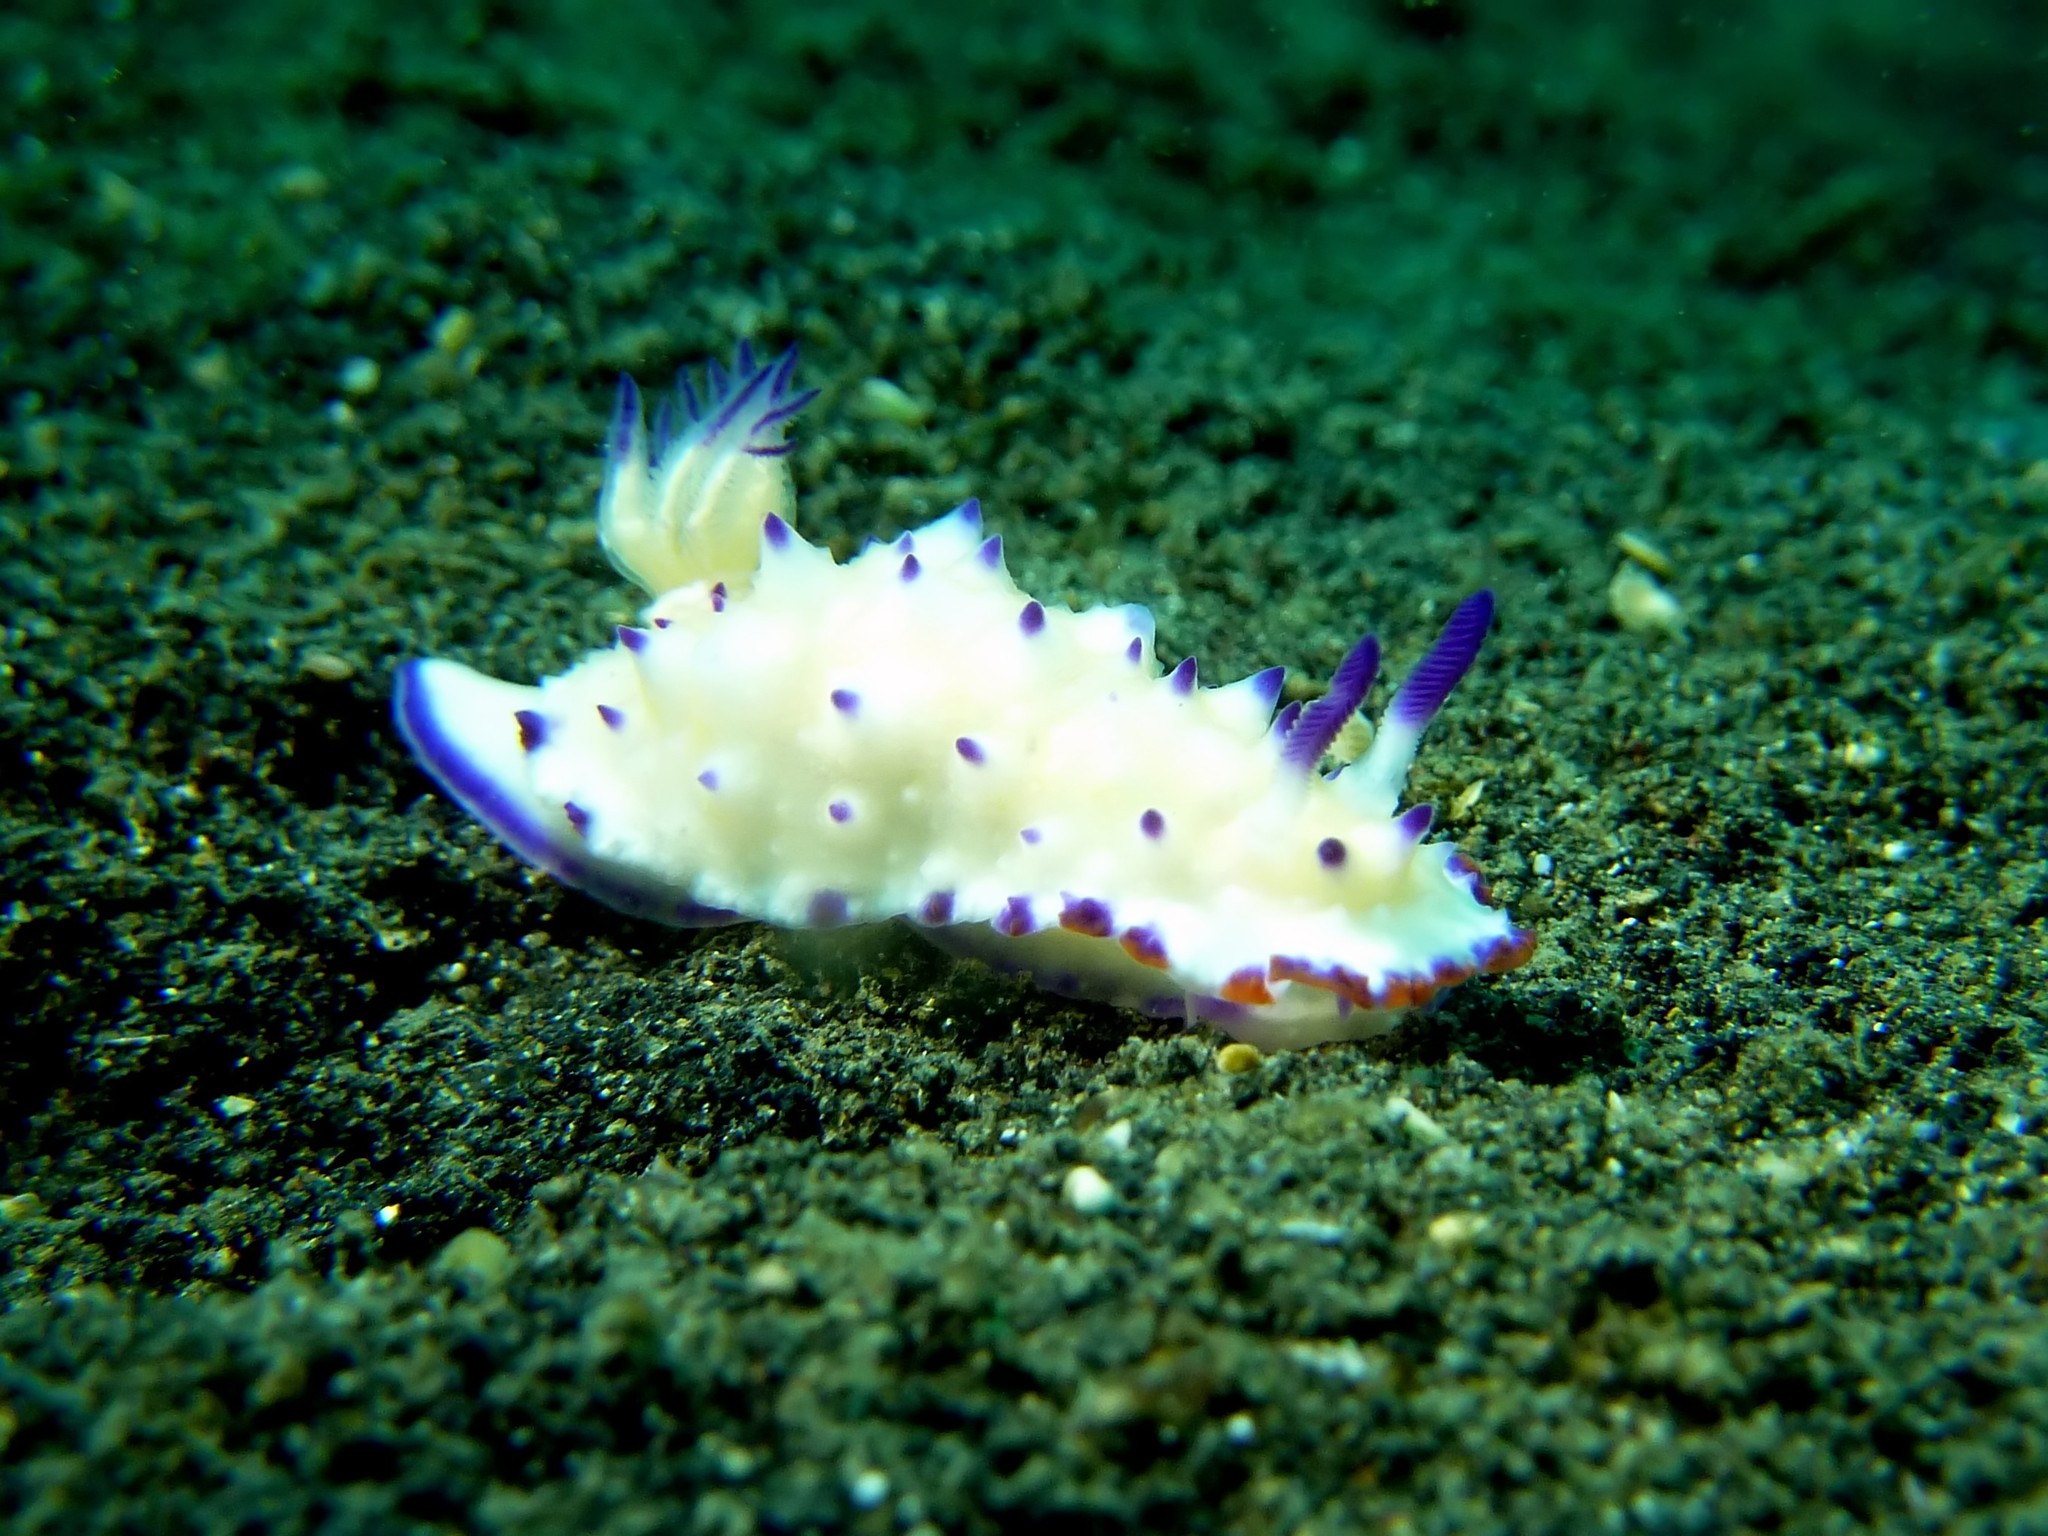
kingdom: Animalia
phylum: Mollusca
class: Gastropoda
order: Nudibranchia
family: Chromodorididae
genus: Mexichromis
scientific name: Mexichromis multituberculata
